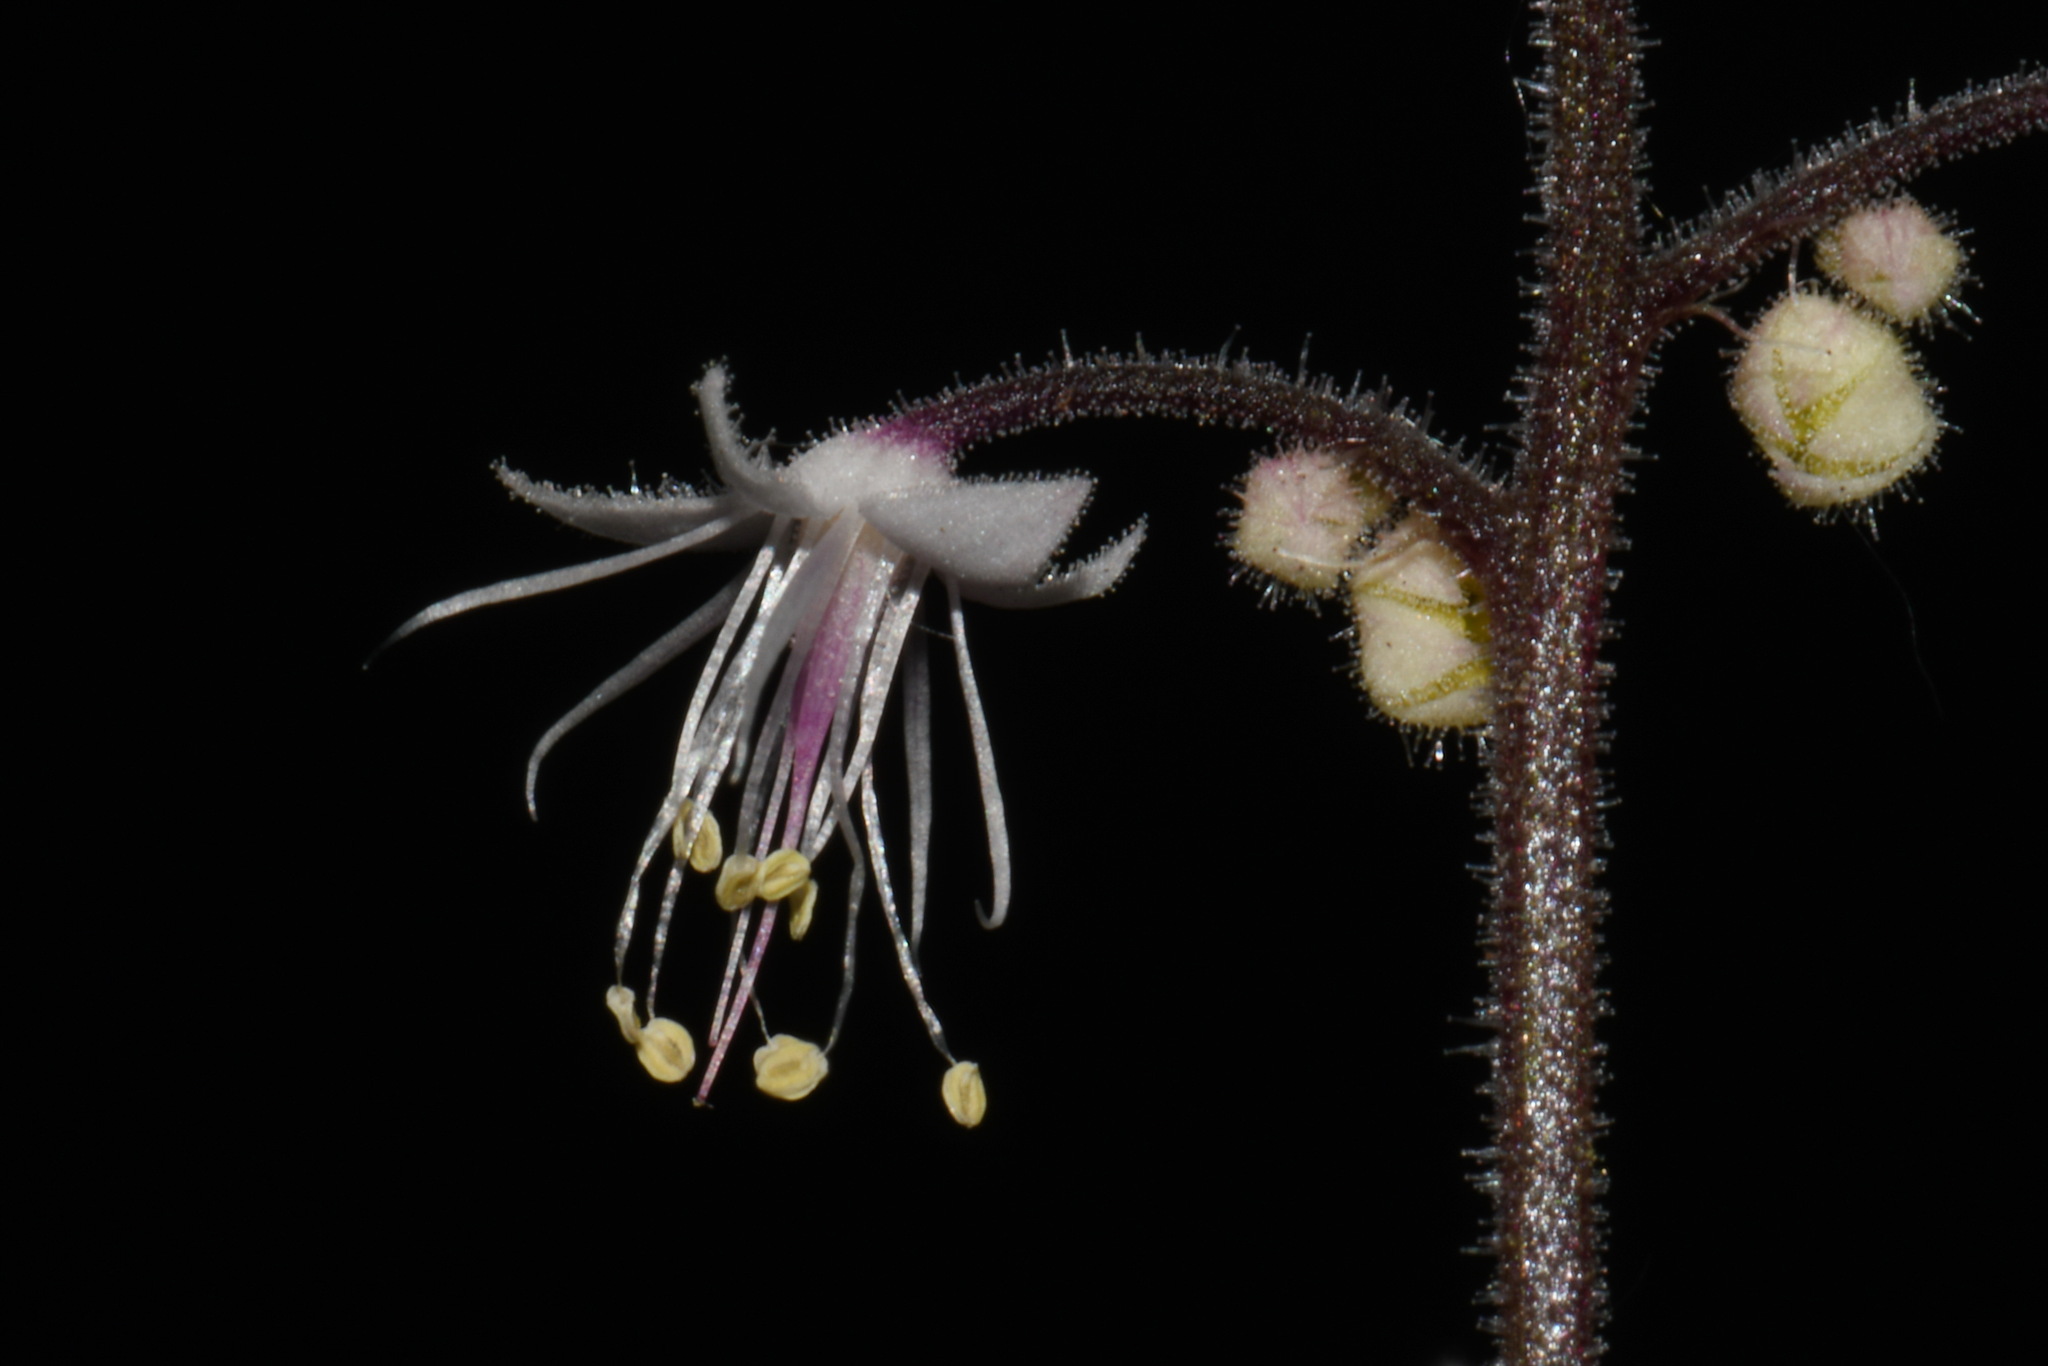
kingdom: Plantae
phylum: Tracheophyta
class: Magnoliopsida
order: Saxifragales
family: Saxifragaceae
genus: Tiarella
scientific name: Tiarella trifoliata
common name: Sugar-scoop
